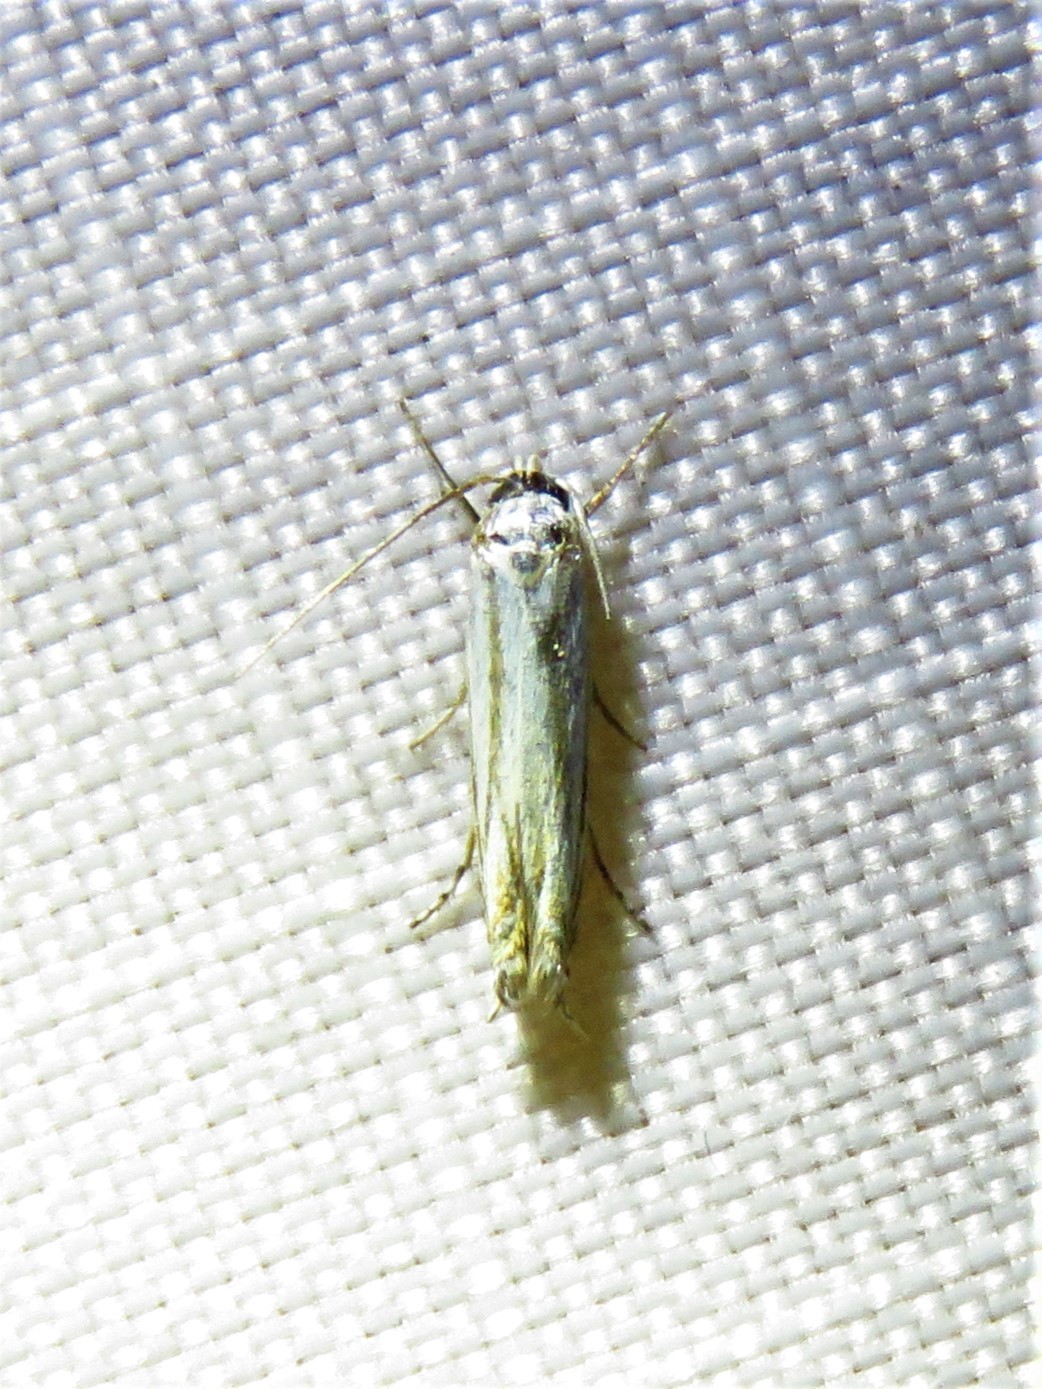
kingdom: Animalia
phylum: Arthropoda
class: Insecta
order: Lepidoptera
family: Gelechiidae
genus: Polyhymno
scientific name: Polyhymno luteostrigella
